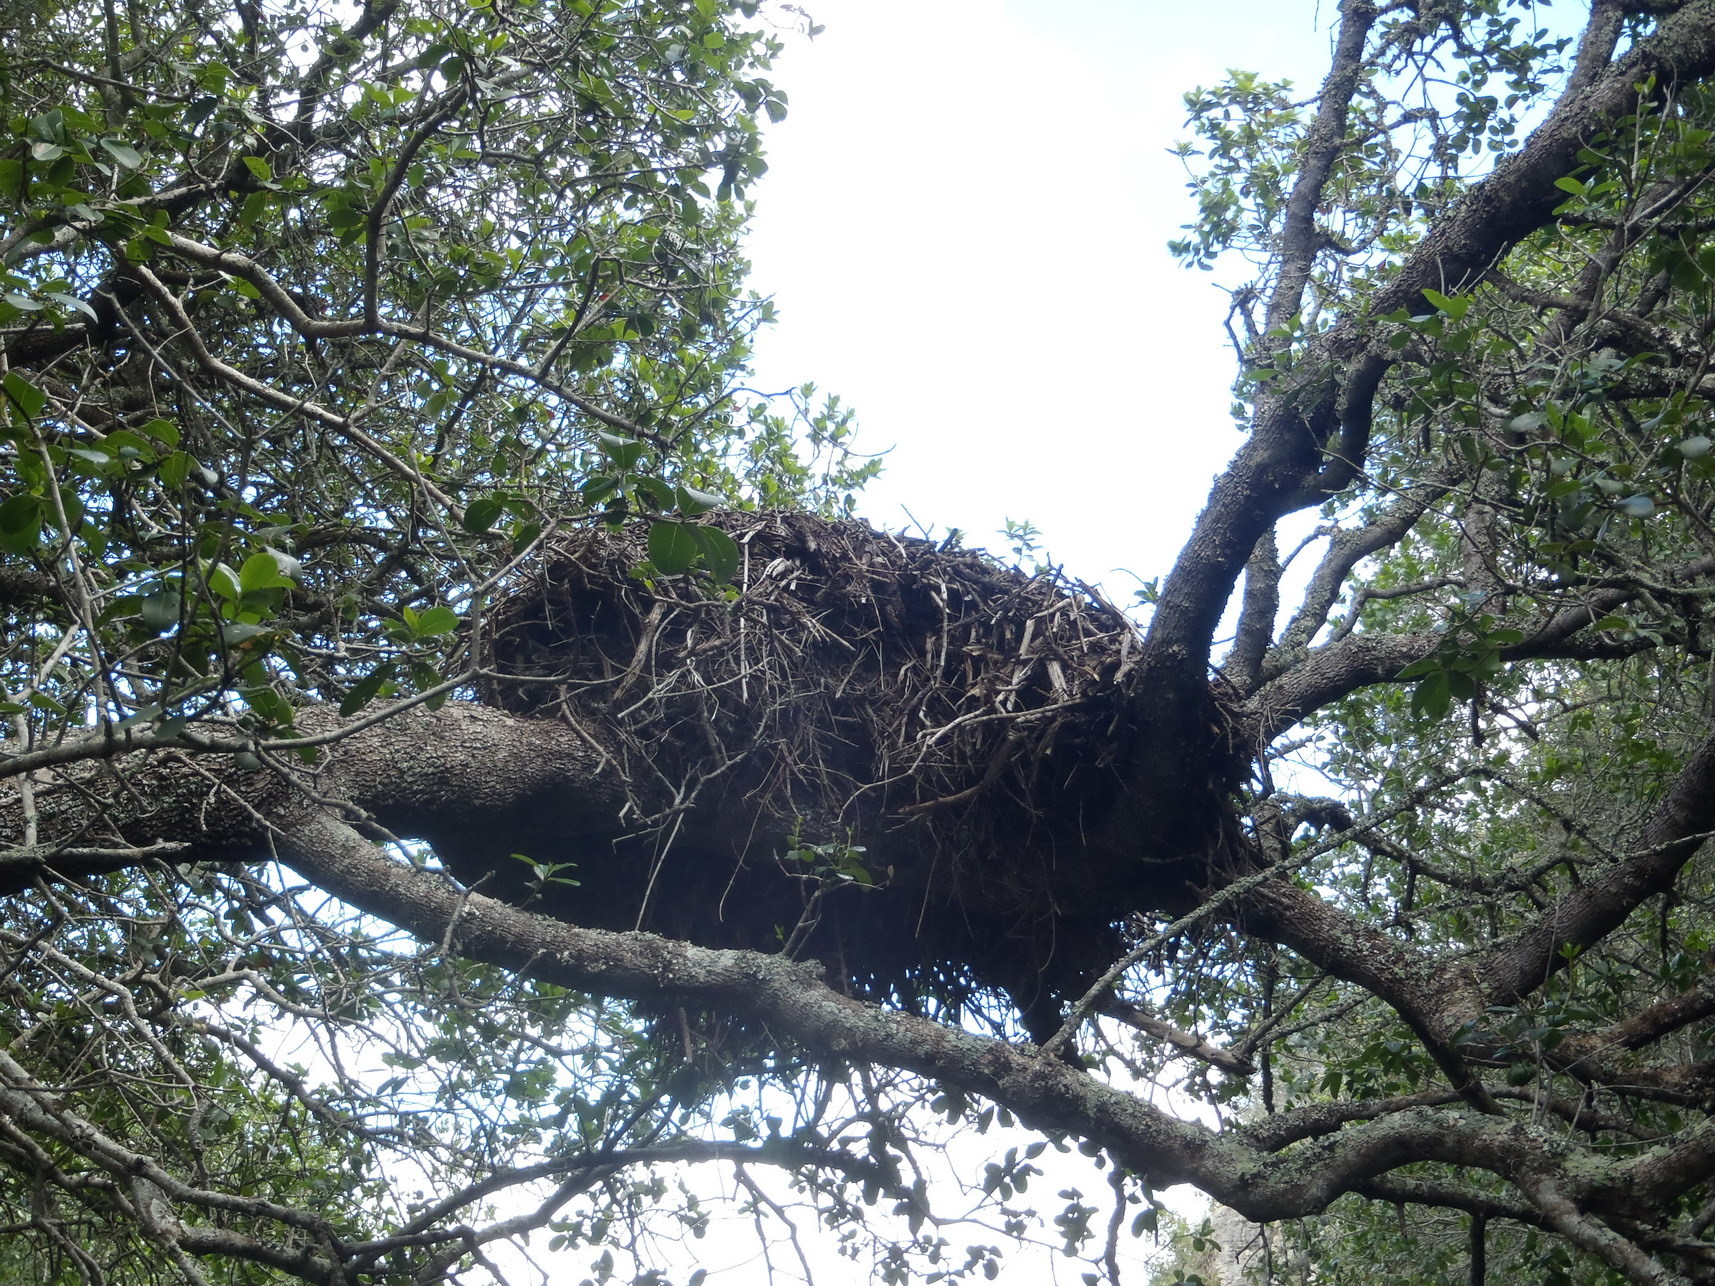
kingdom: Animalia
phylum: Chordata
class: Aves
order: Pelecaniformes
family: Scopidae
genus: Scopus
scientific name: Scopus umbretta
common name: Hamerkop
